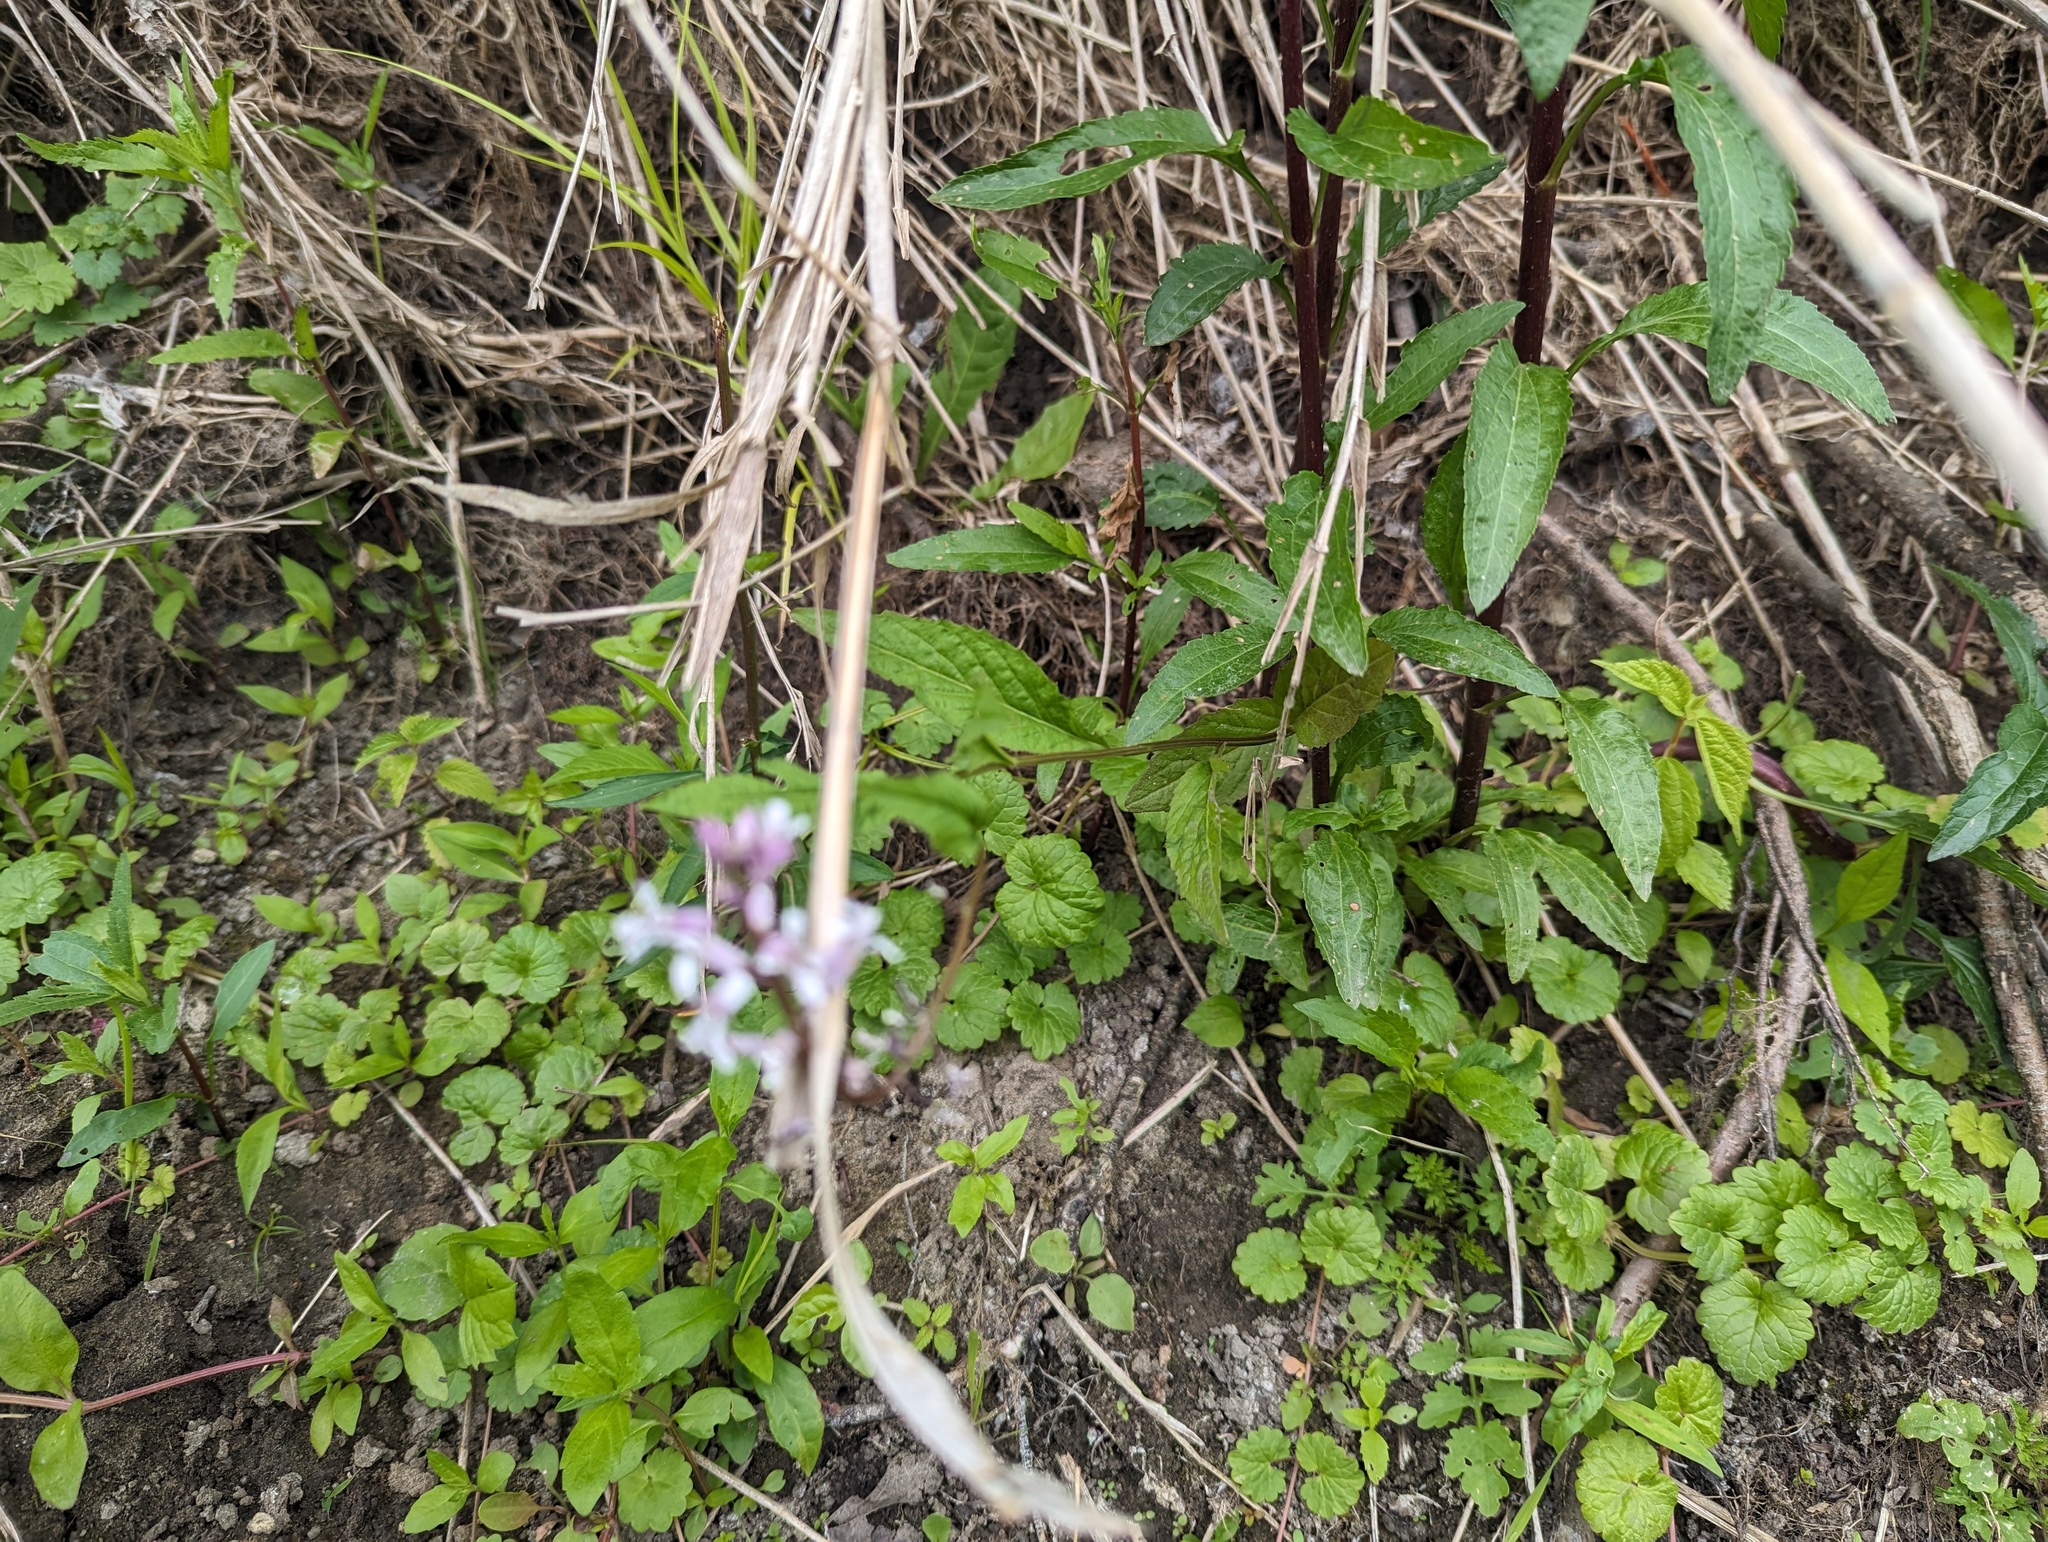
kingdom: Plantae
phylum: Tracheophyta
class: Magnoliopsida
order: Brassicales
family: Brassicaceae
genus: Iodanthus
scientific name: Iodanthus pinnatifidus
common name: Violet rocket
